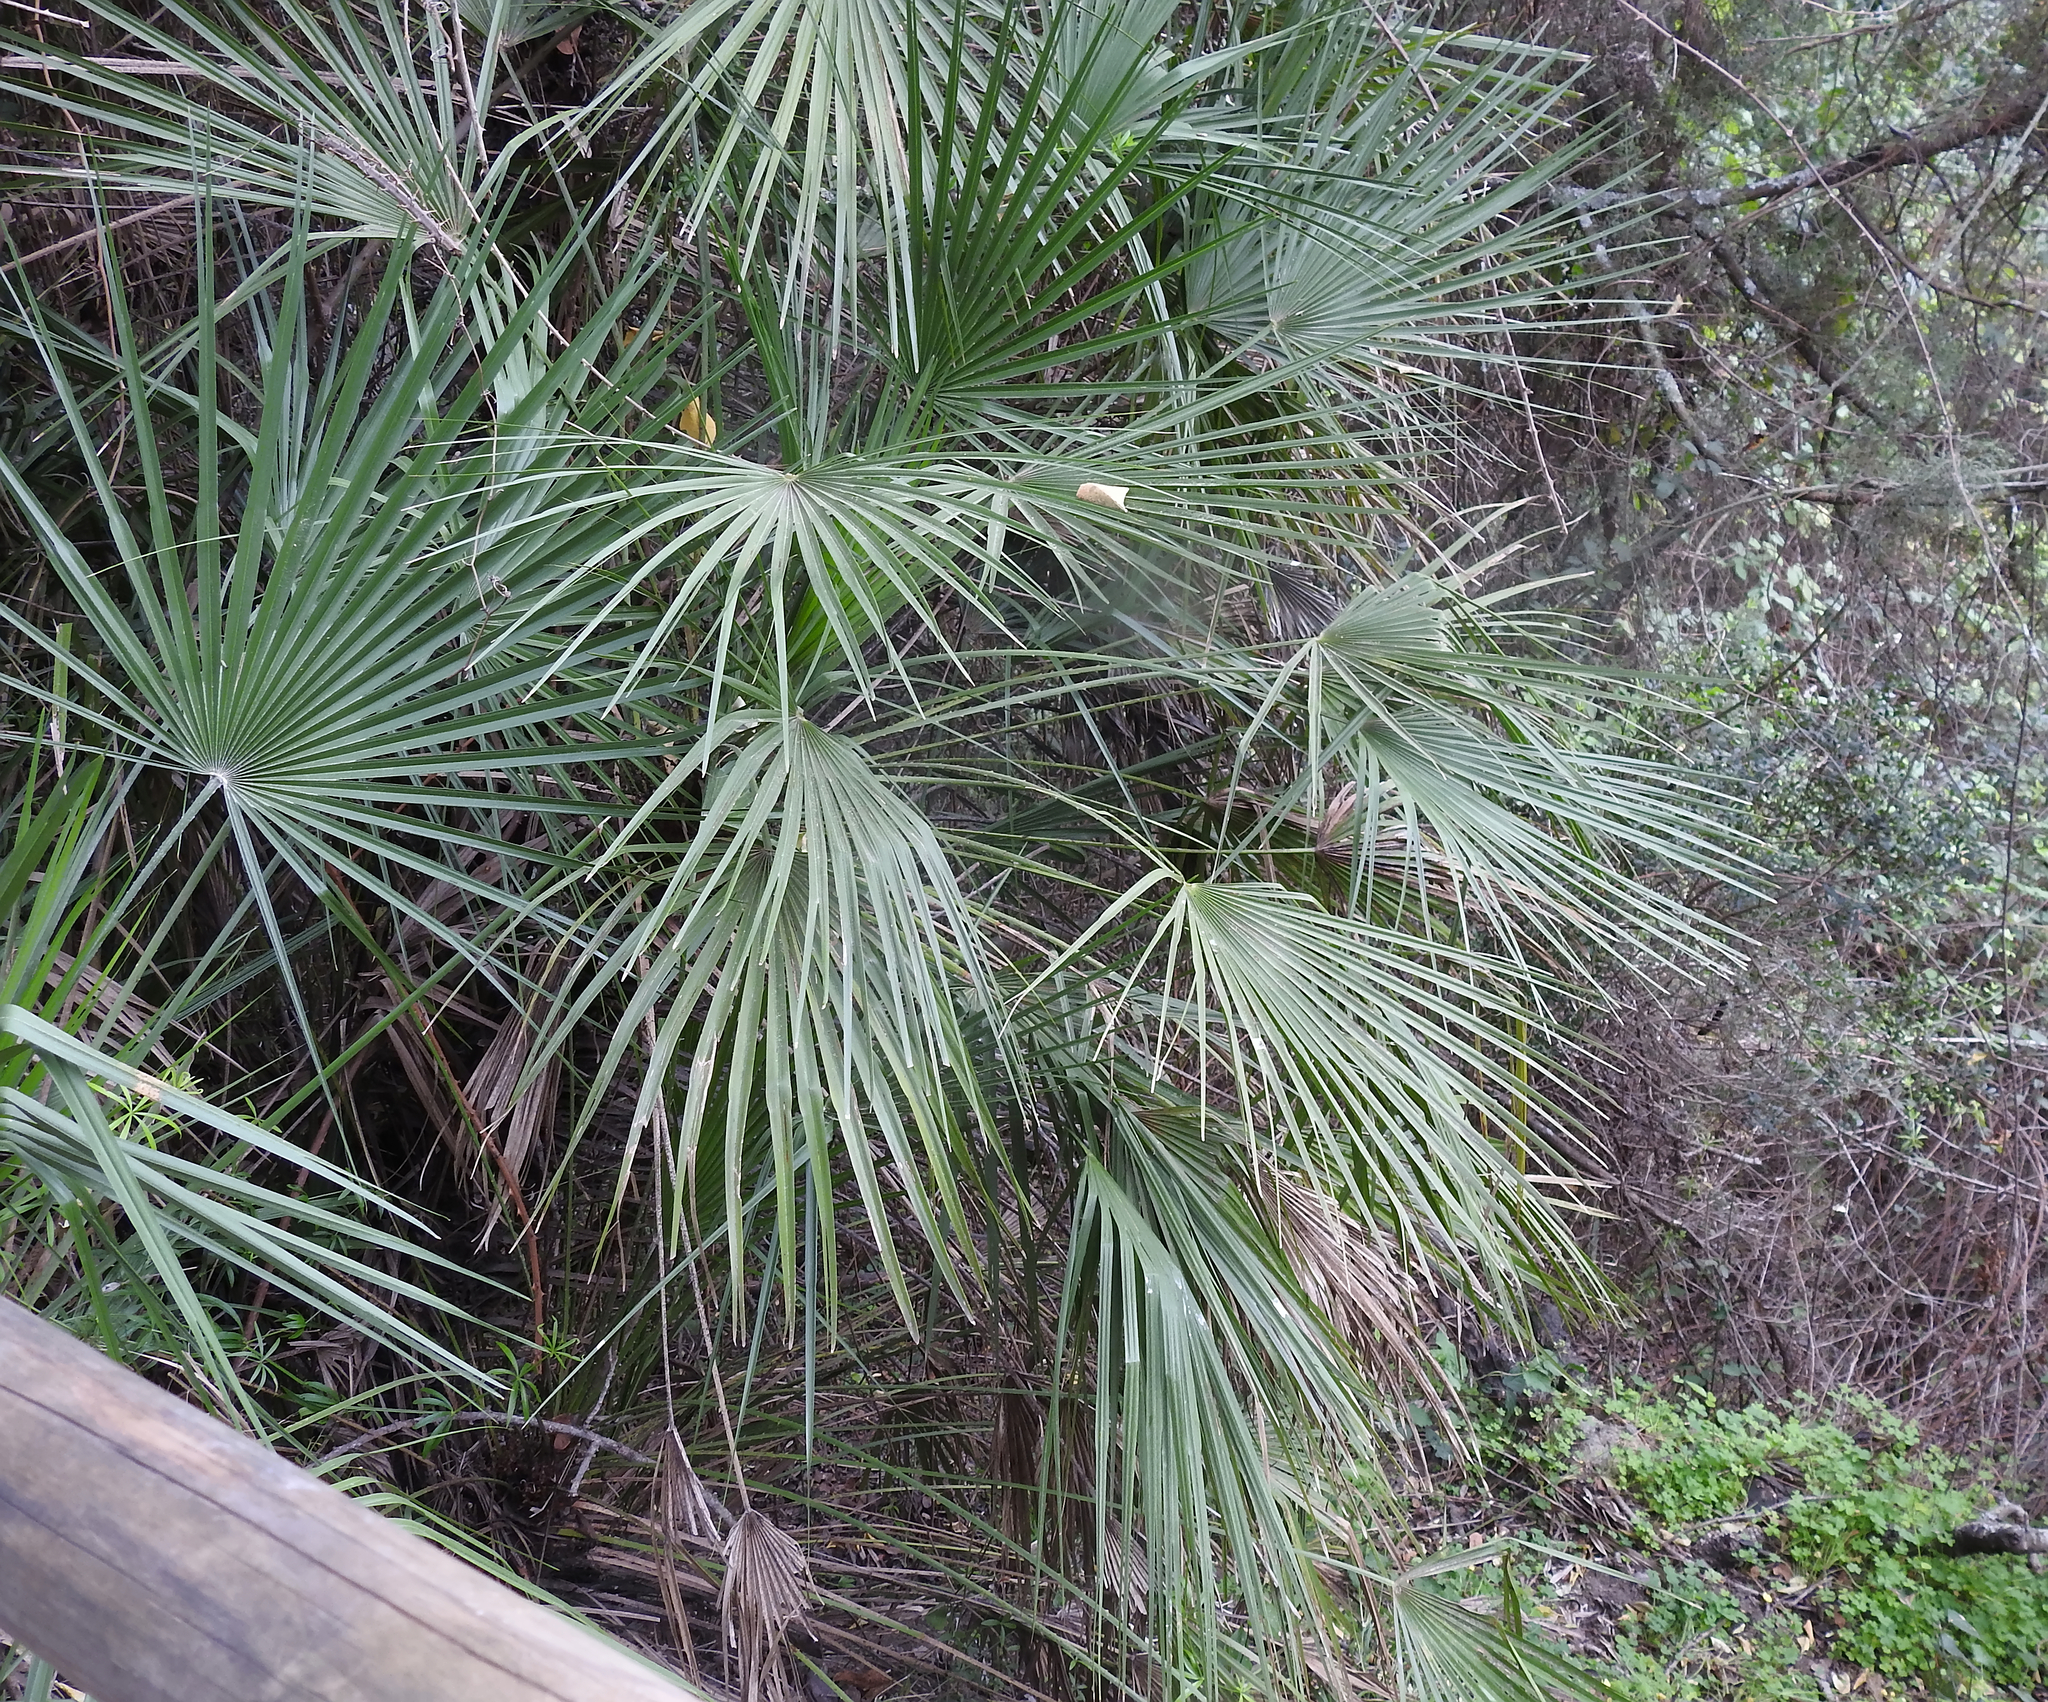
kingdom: Plantae
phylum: Tracheophyta
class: Liliopsida
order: Arecales
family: Arecaceae
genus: Chamaerops
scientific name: Chamaerops humilis
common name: Dwarf fan palm
